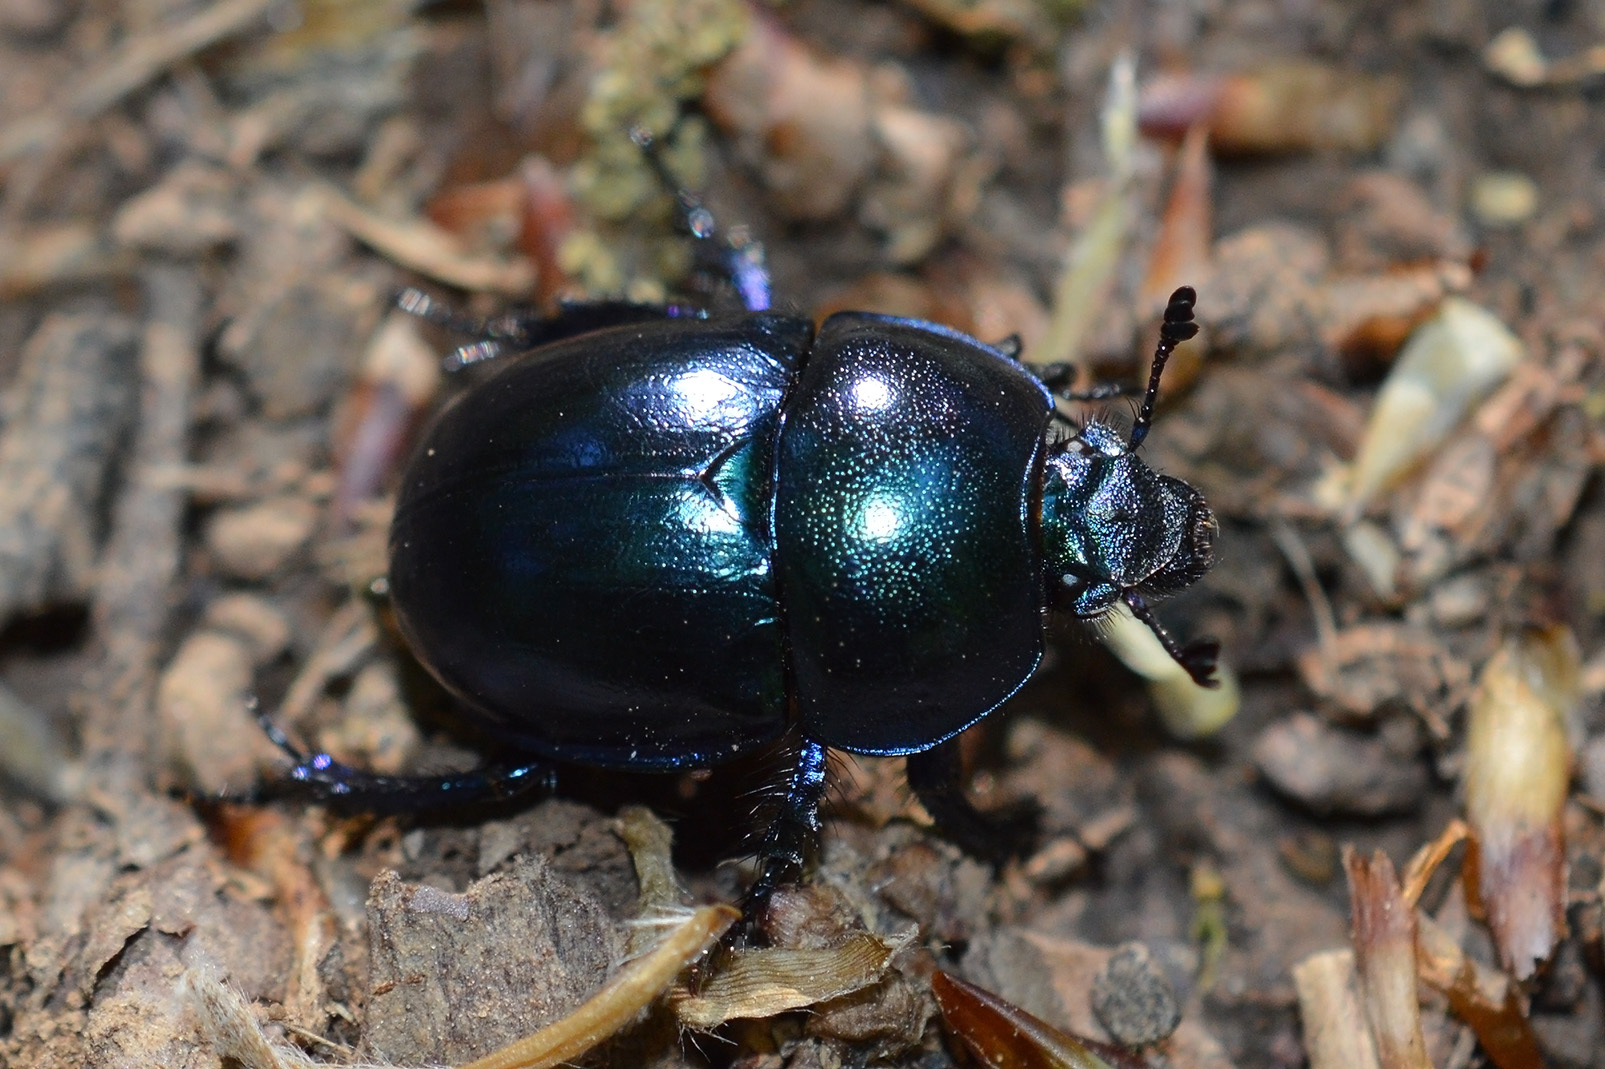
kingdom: Animalia
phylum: Arthropoda
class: Insecta
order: Coleoptera
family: Geotrupidae
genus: Trypocopris
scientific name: Trypocopris vernalis
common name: Spring dumbledor
